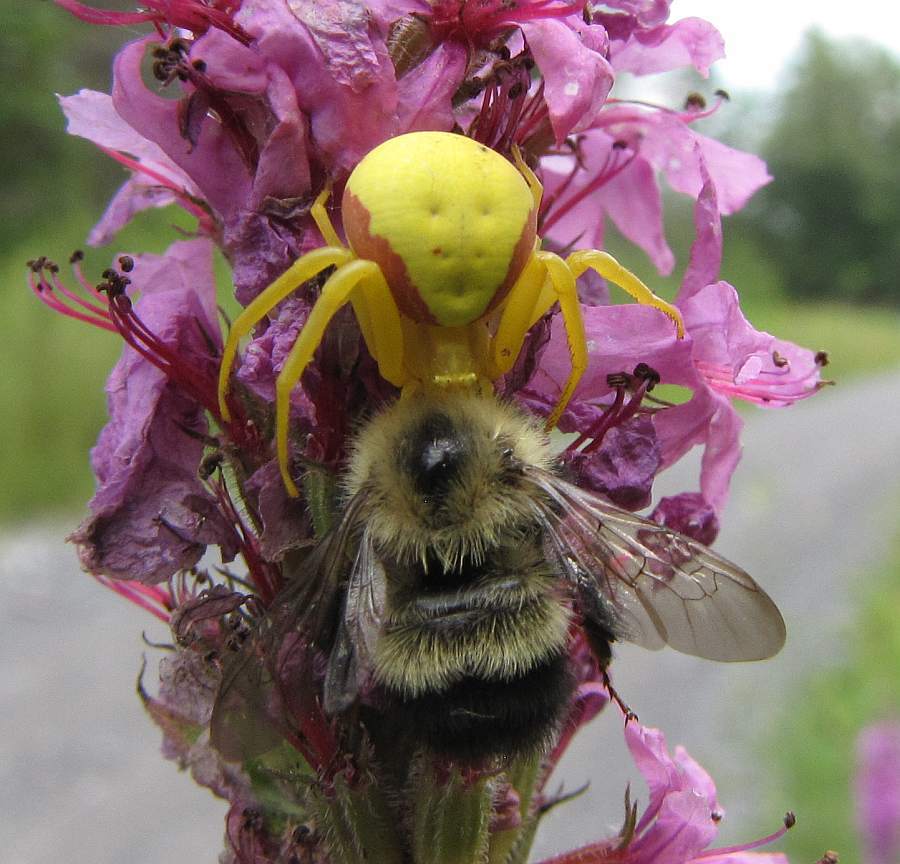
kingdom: Animalia
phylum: Arthropoda
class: Insecta
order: Hymenoptera
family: Apidae
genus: Pyrobombus
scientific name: Pyrobombus
